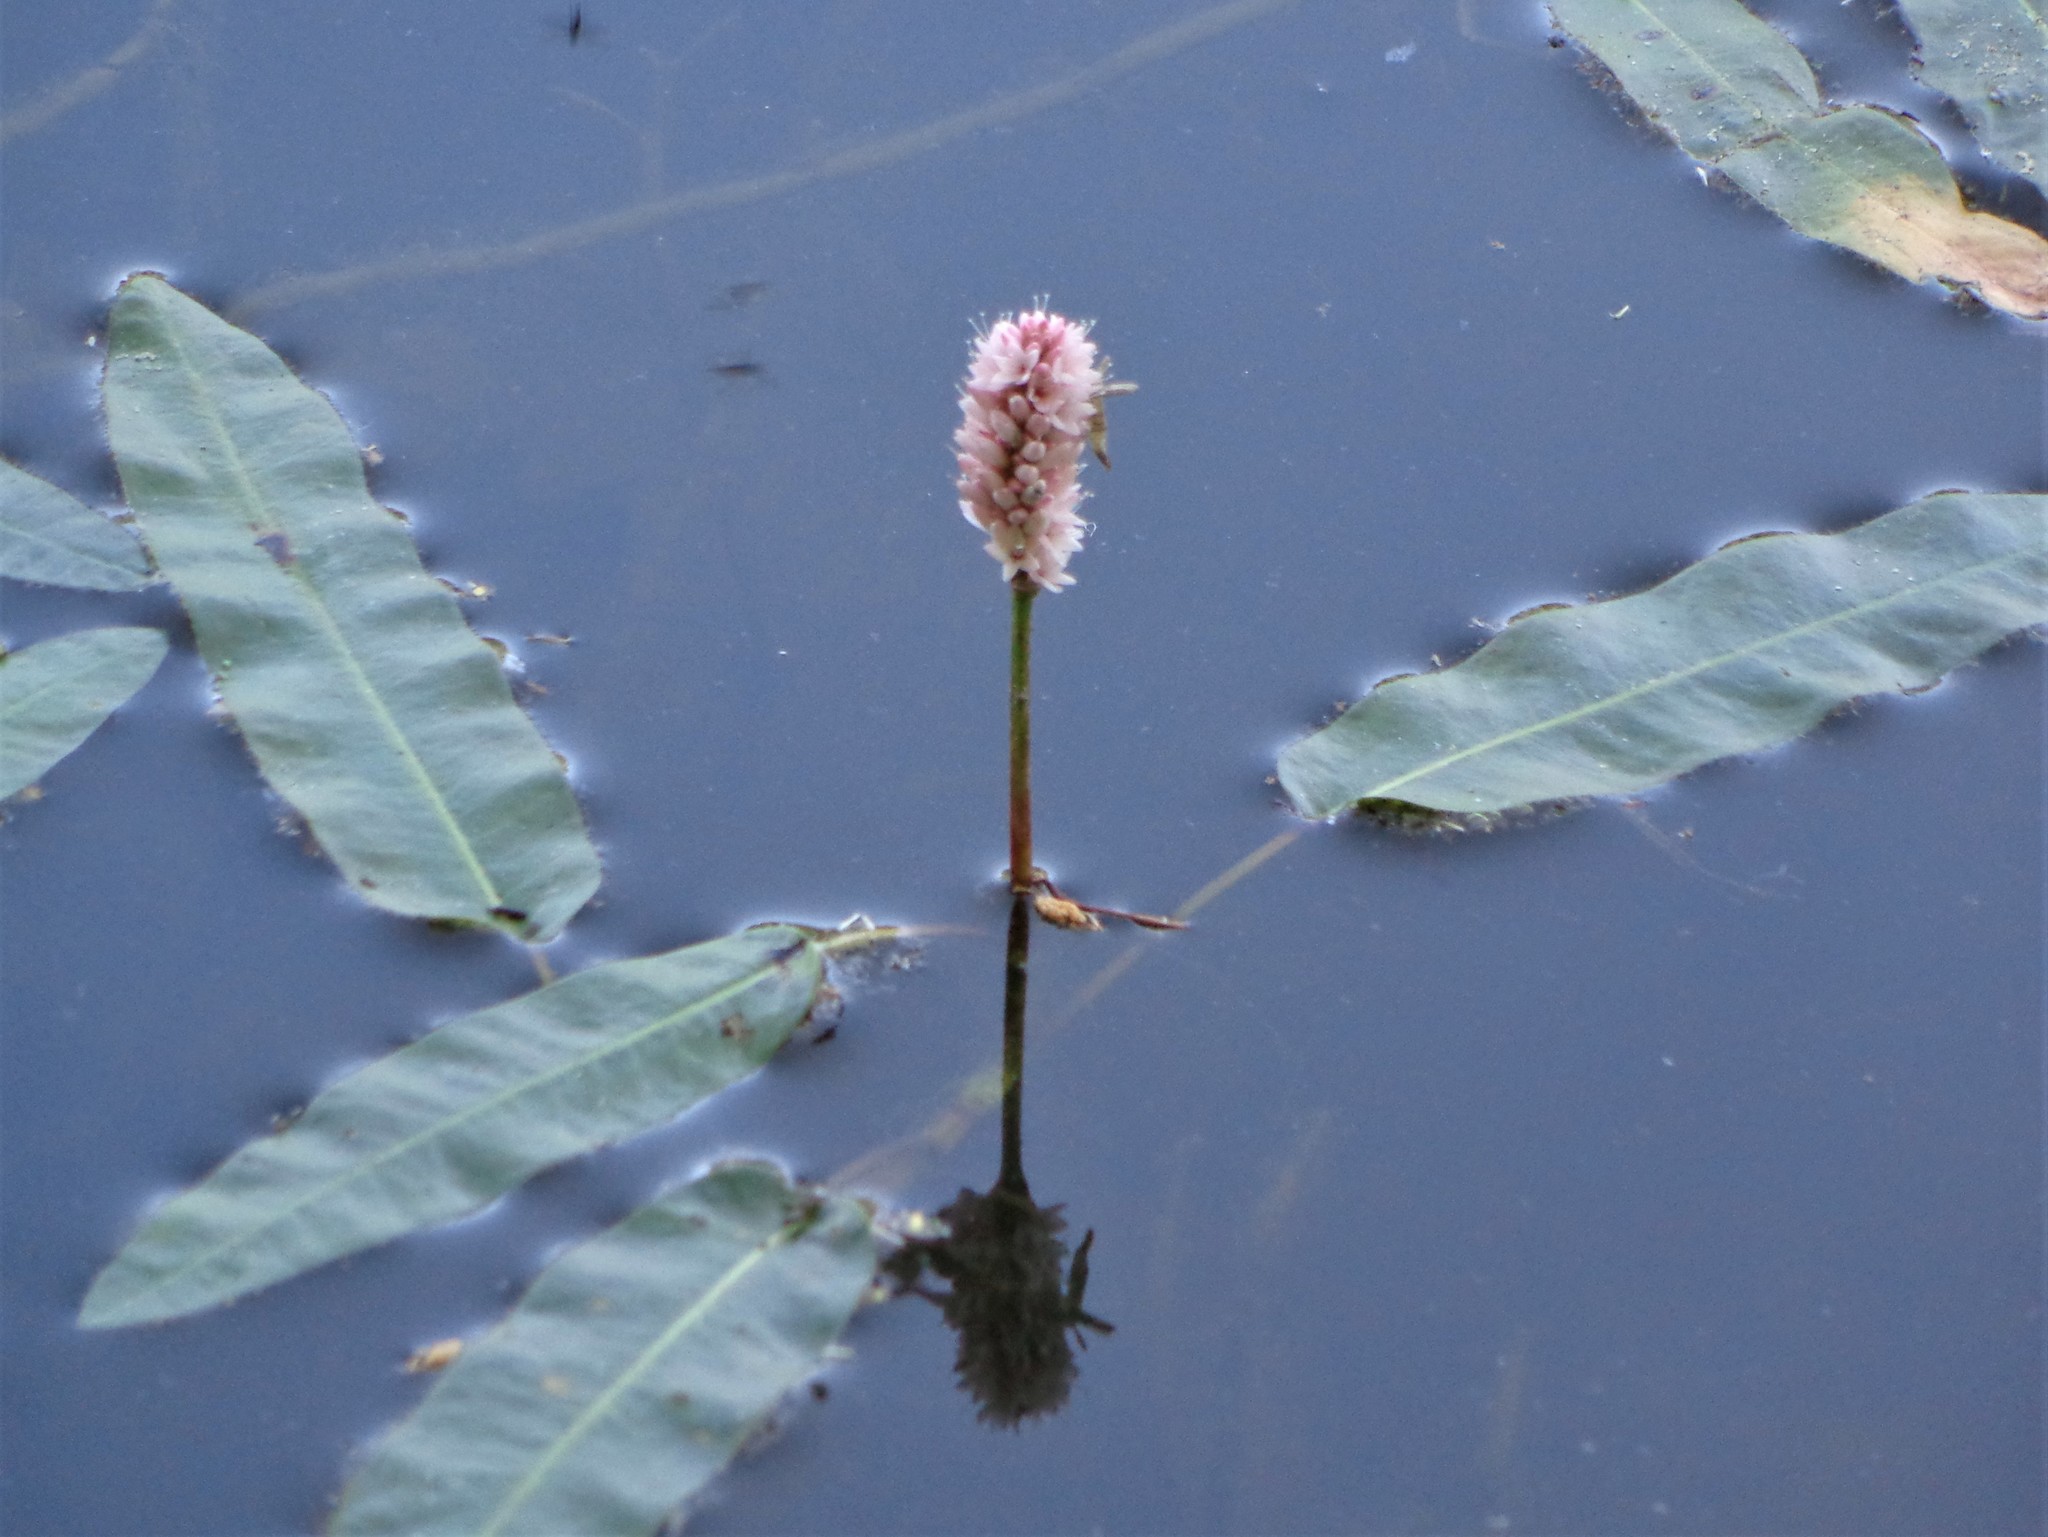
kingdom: Plantae
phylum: Tracheophyta
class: Magnoliopsida
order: Caryophyllales
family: Polygonaceae
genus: Persicaria
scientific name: Persicaria amphibia
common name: Amphibious bistort
